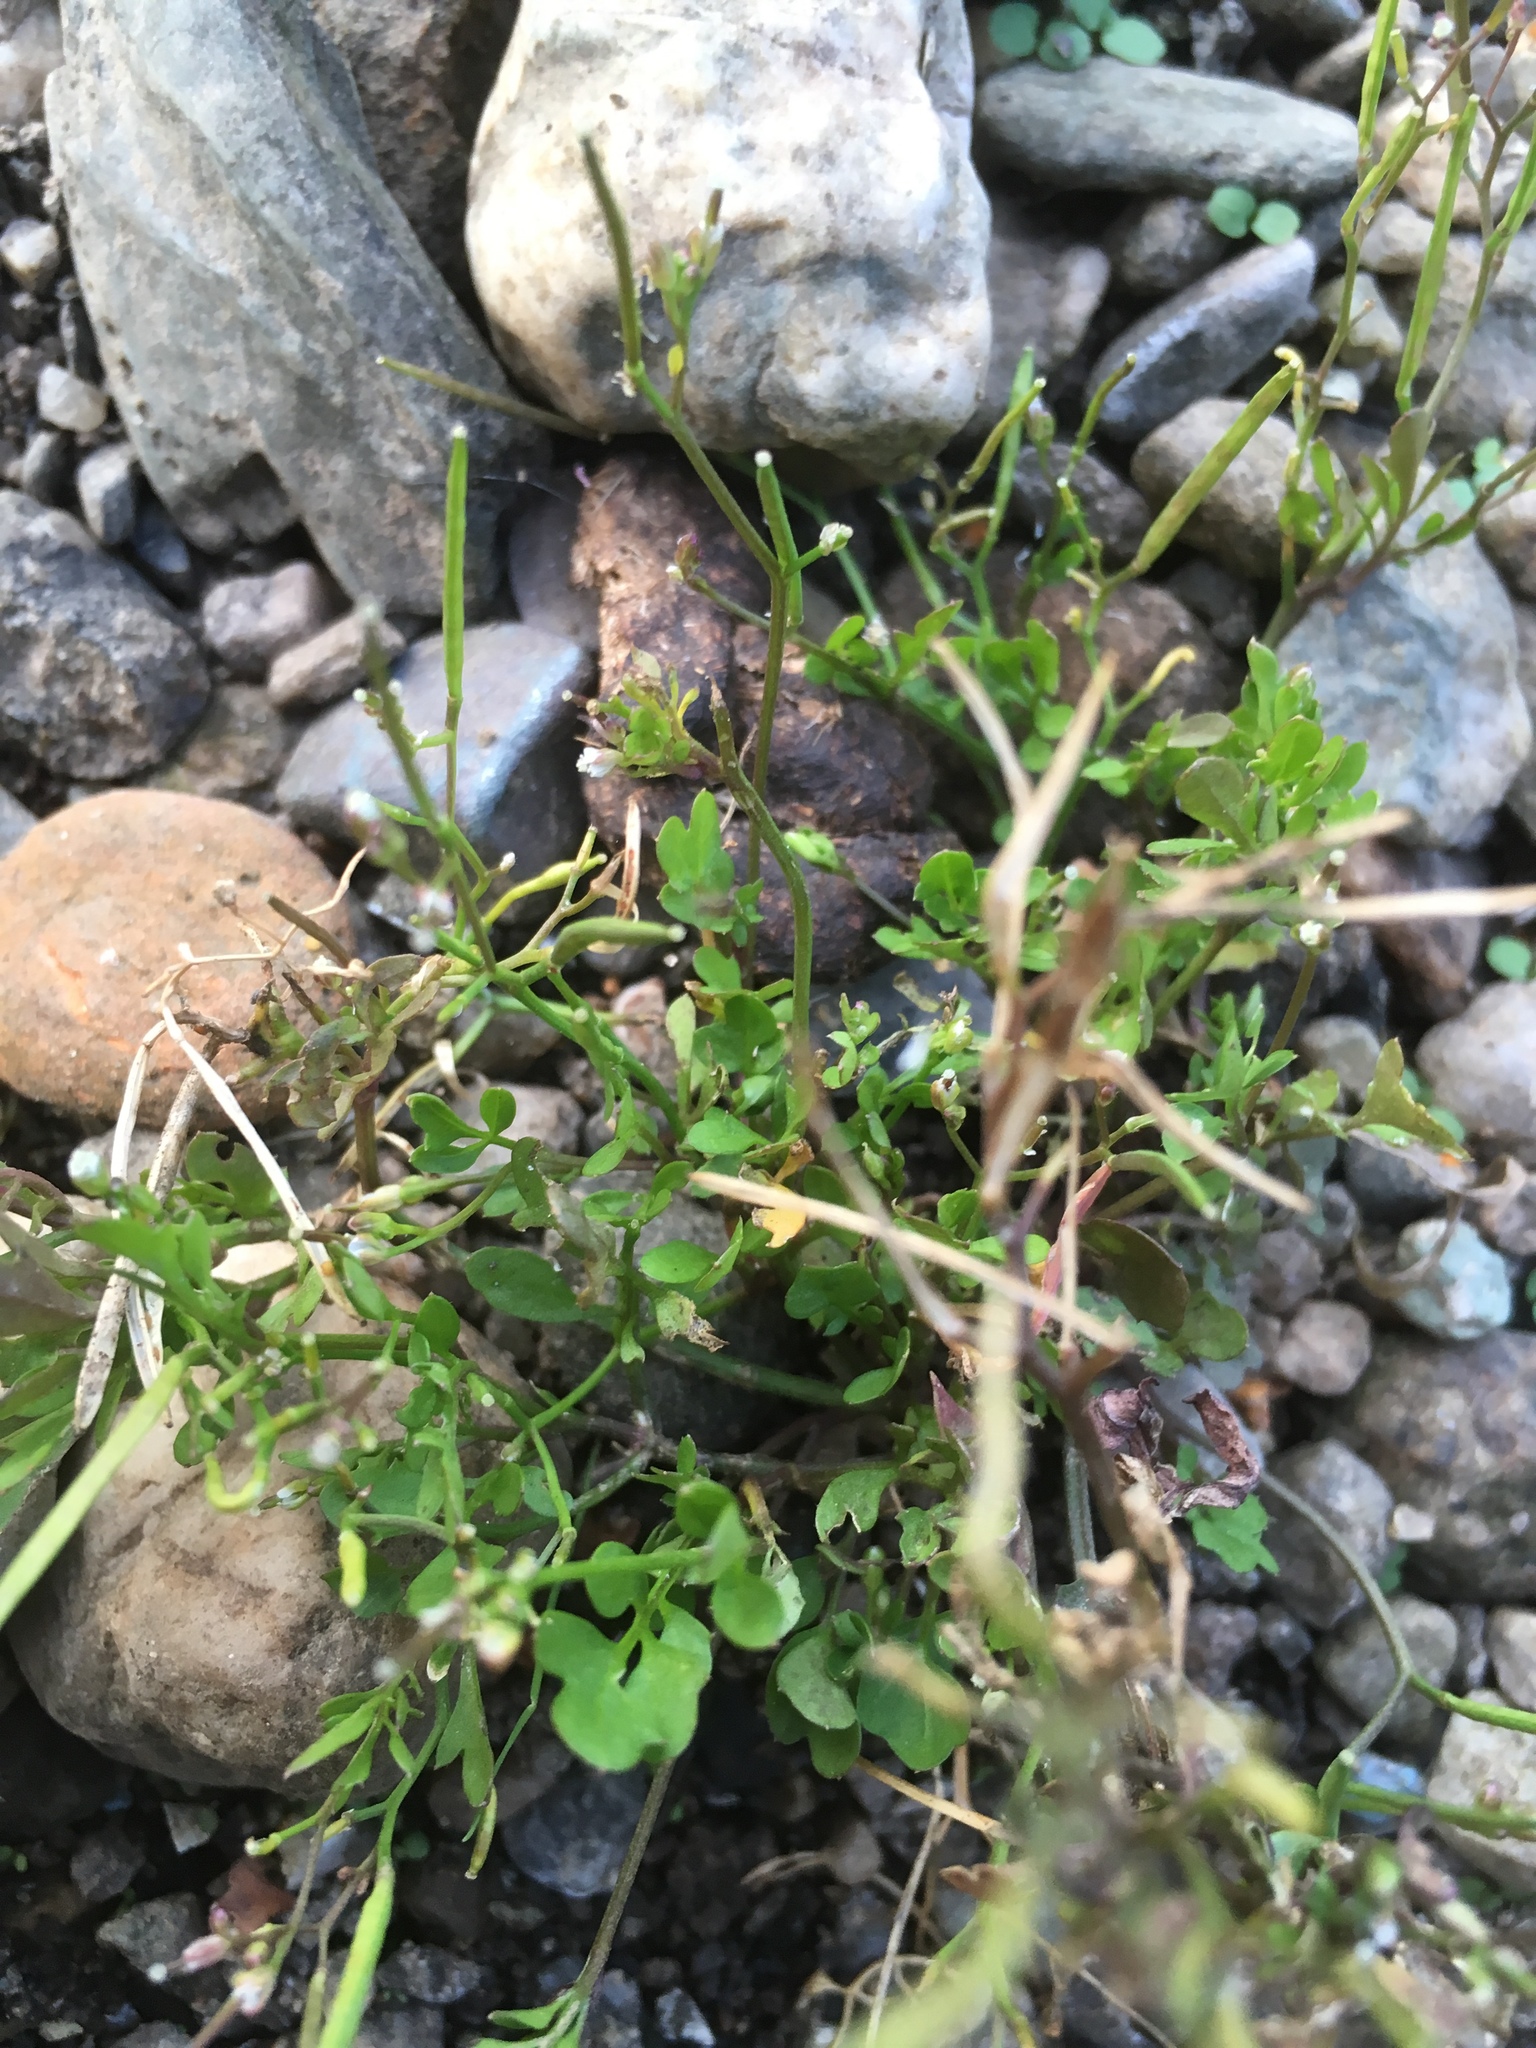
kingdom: Plantae
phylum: Tracheophyta
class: Magnoliopsida
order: Brassicales
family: Brassicaceae
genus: Cardamine
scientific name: Cardamine hirsuta
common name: Hairy bittercress
